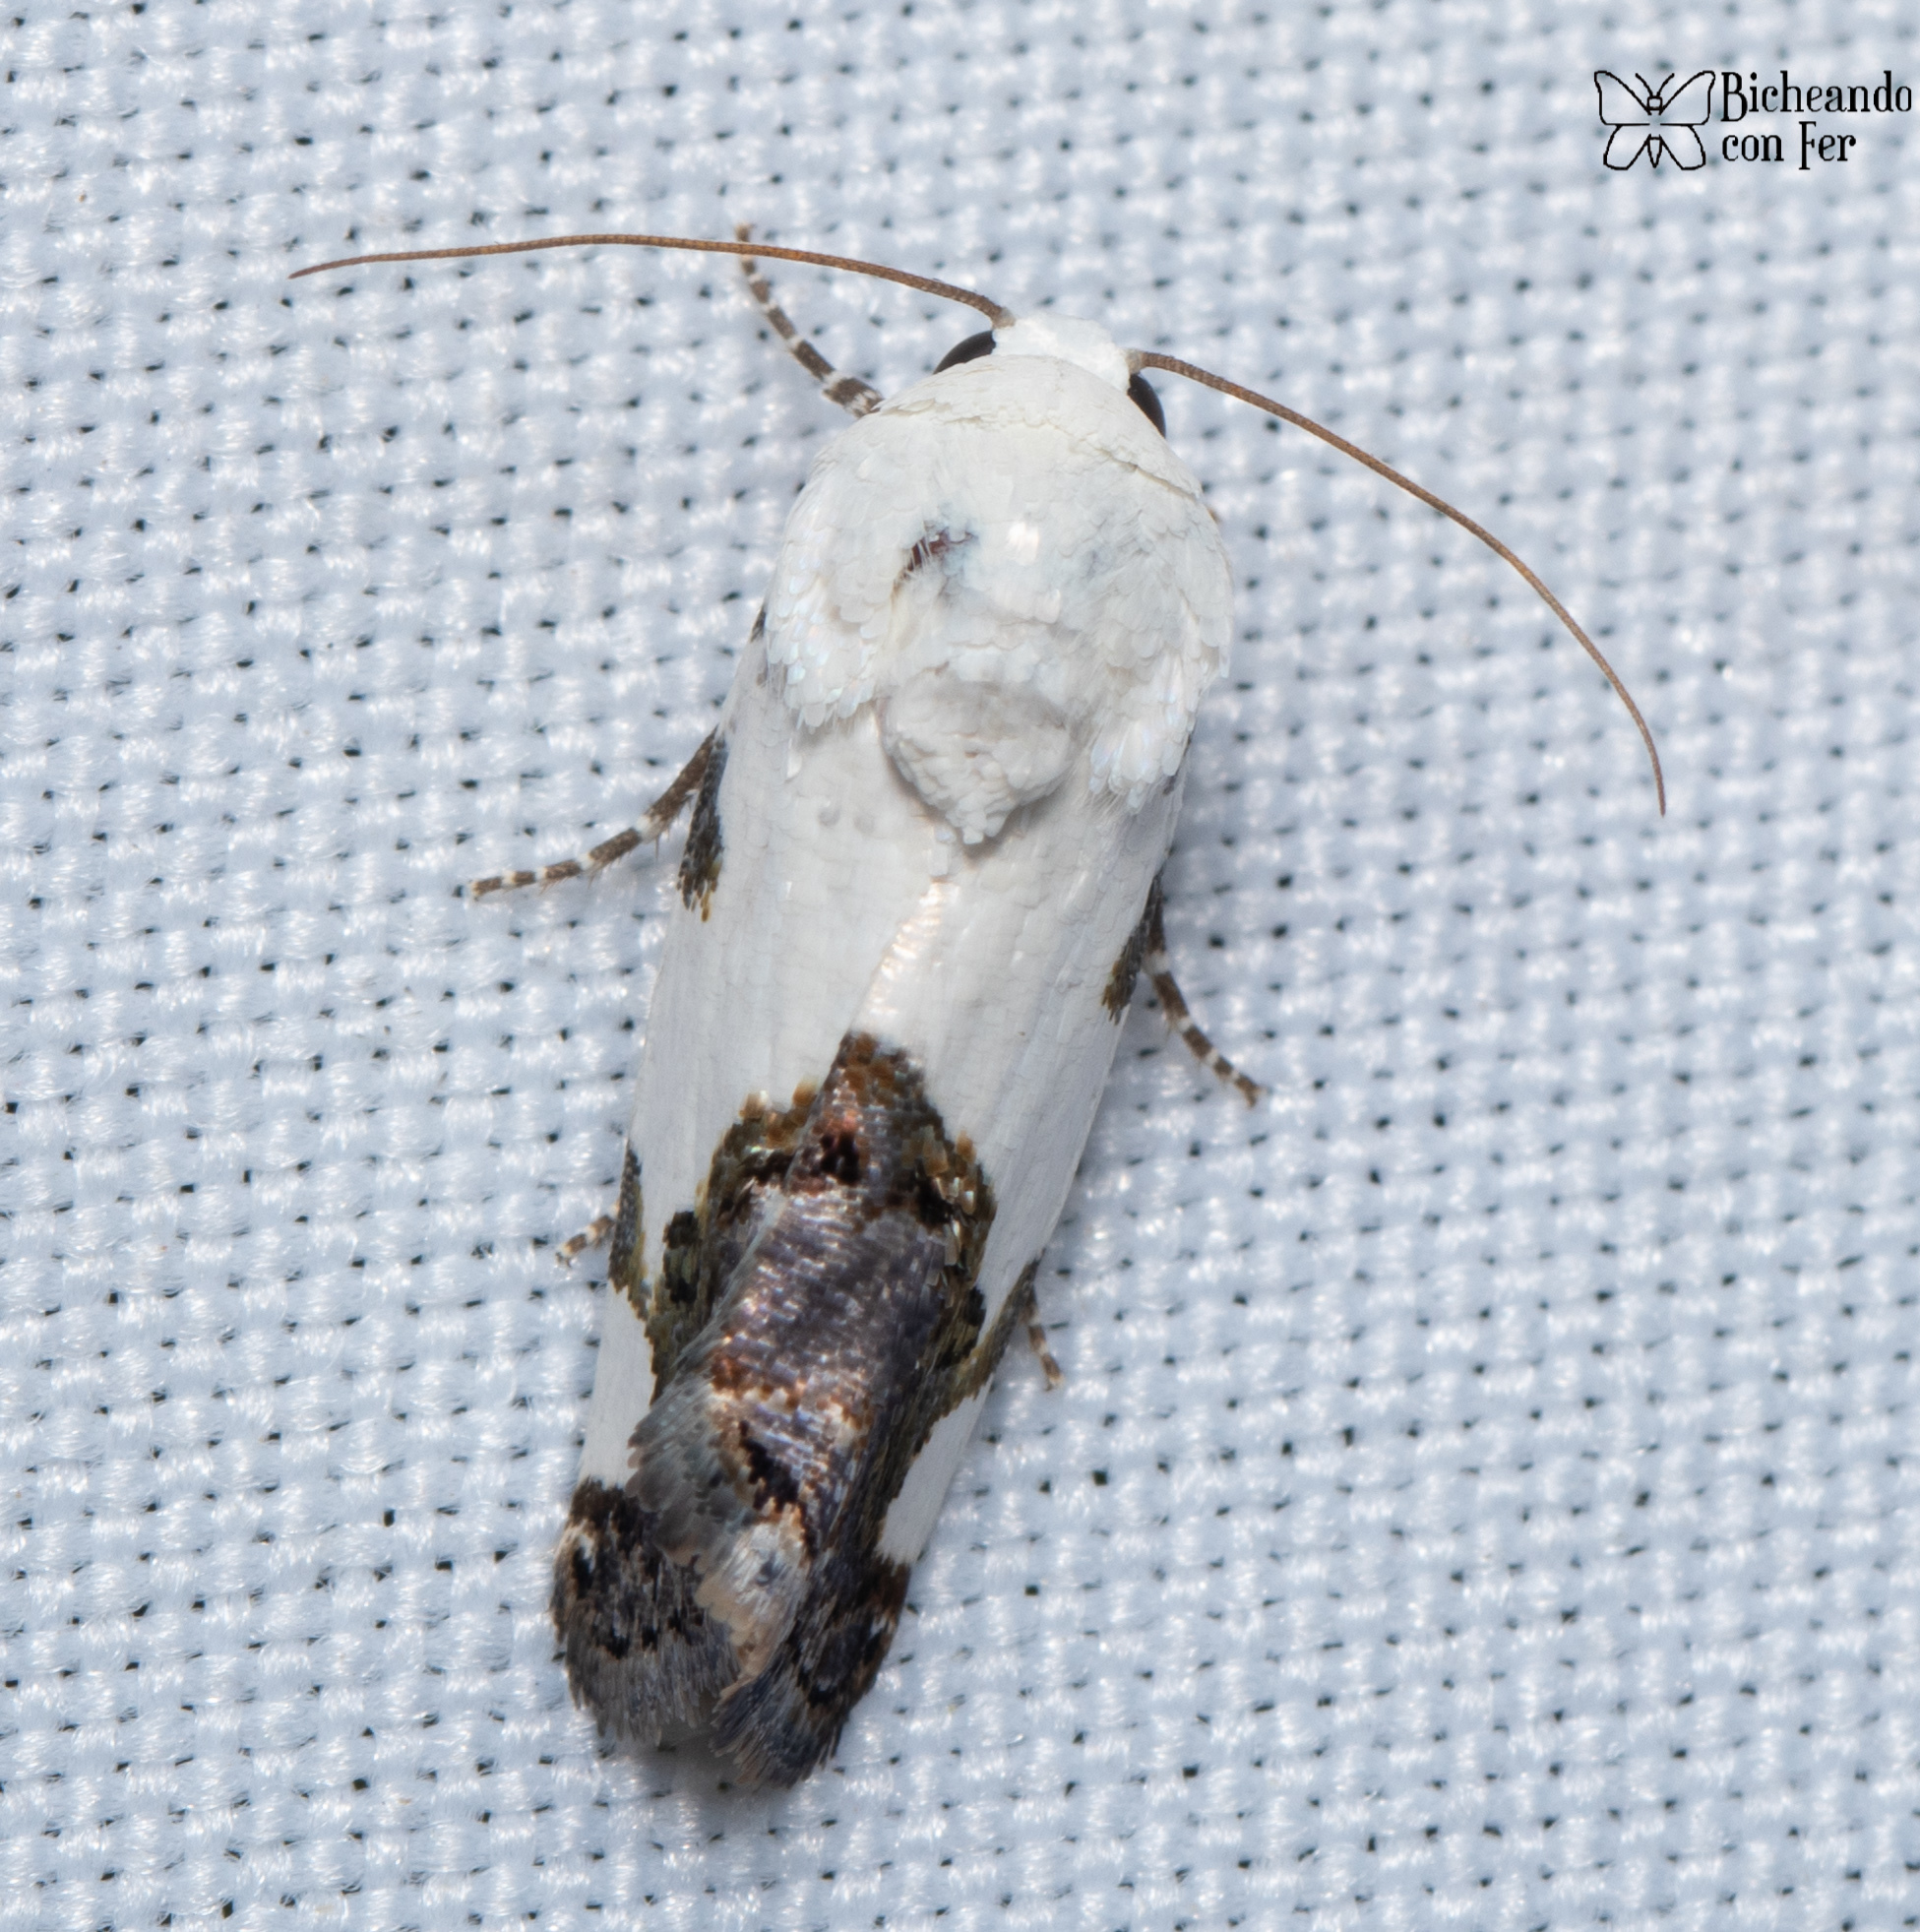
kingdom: Animalia
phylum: Arthropoda
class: Insecta
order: Lepidoptera
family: Noctuidae
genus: Acontia
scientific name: Acontia quadriplaga
